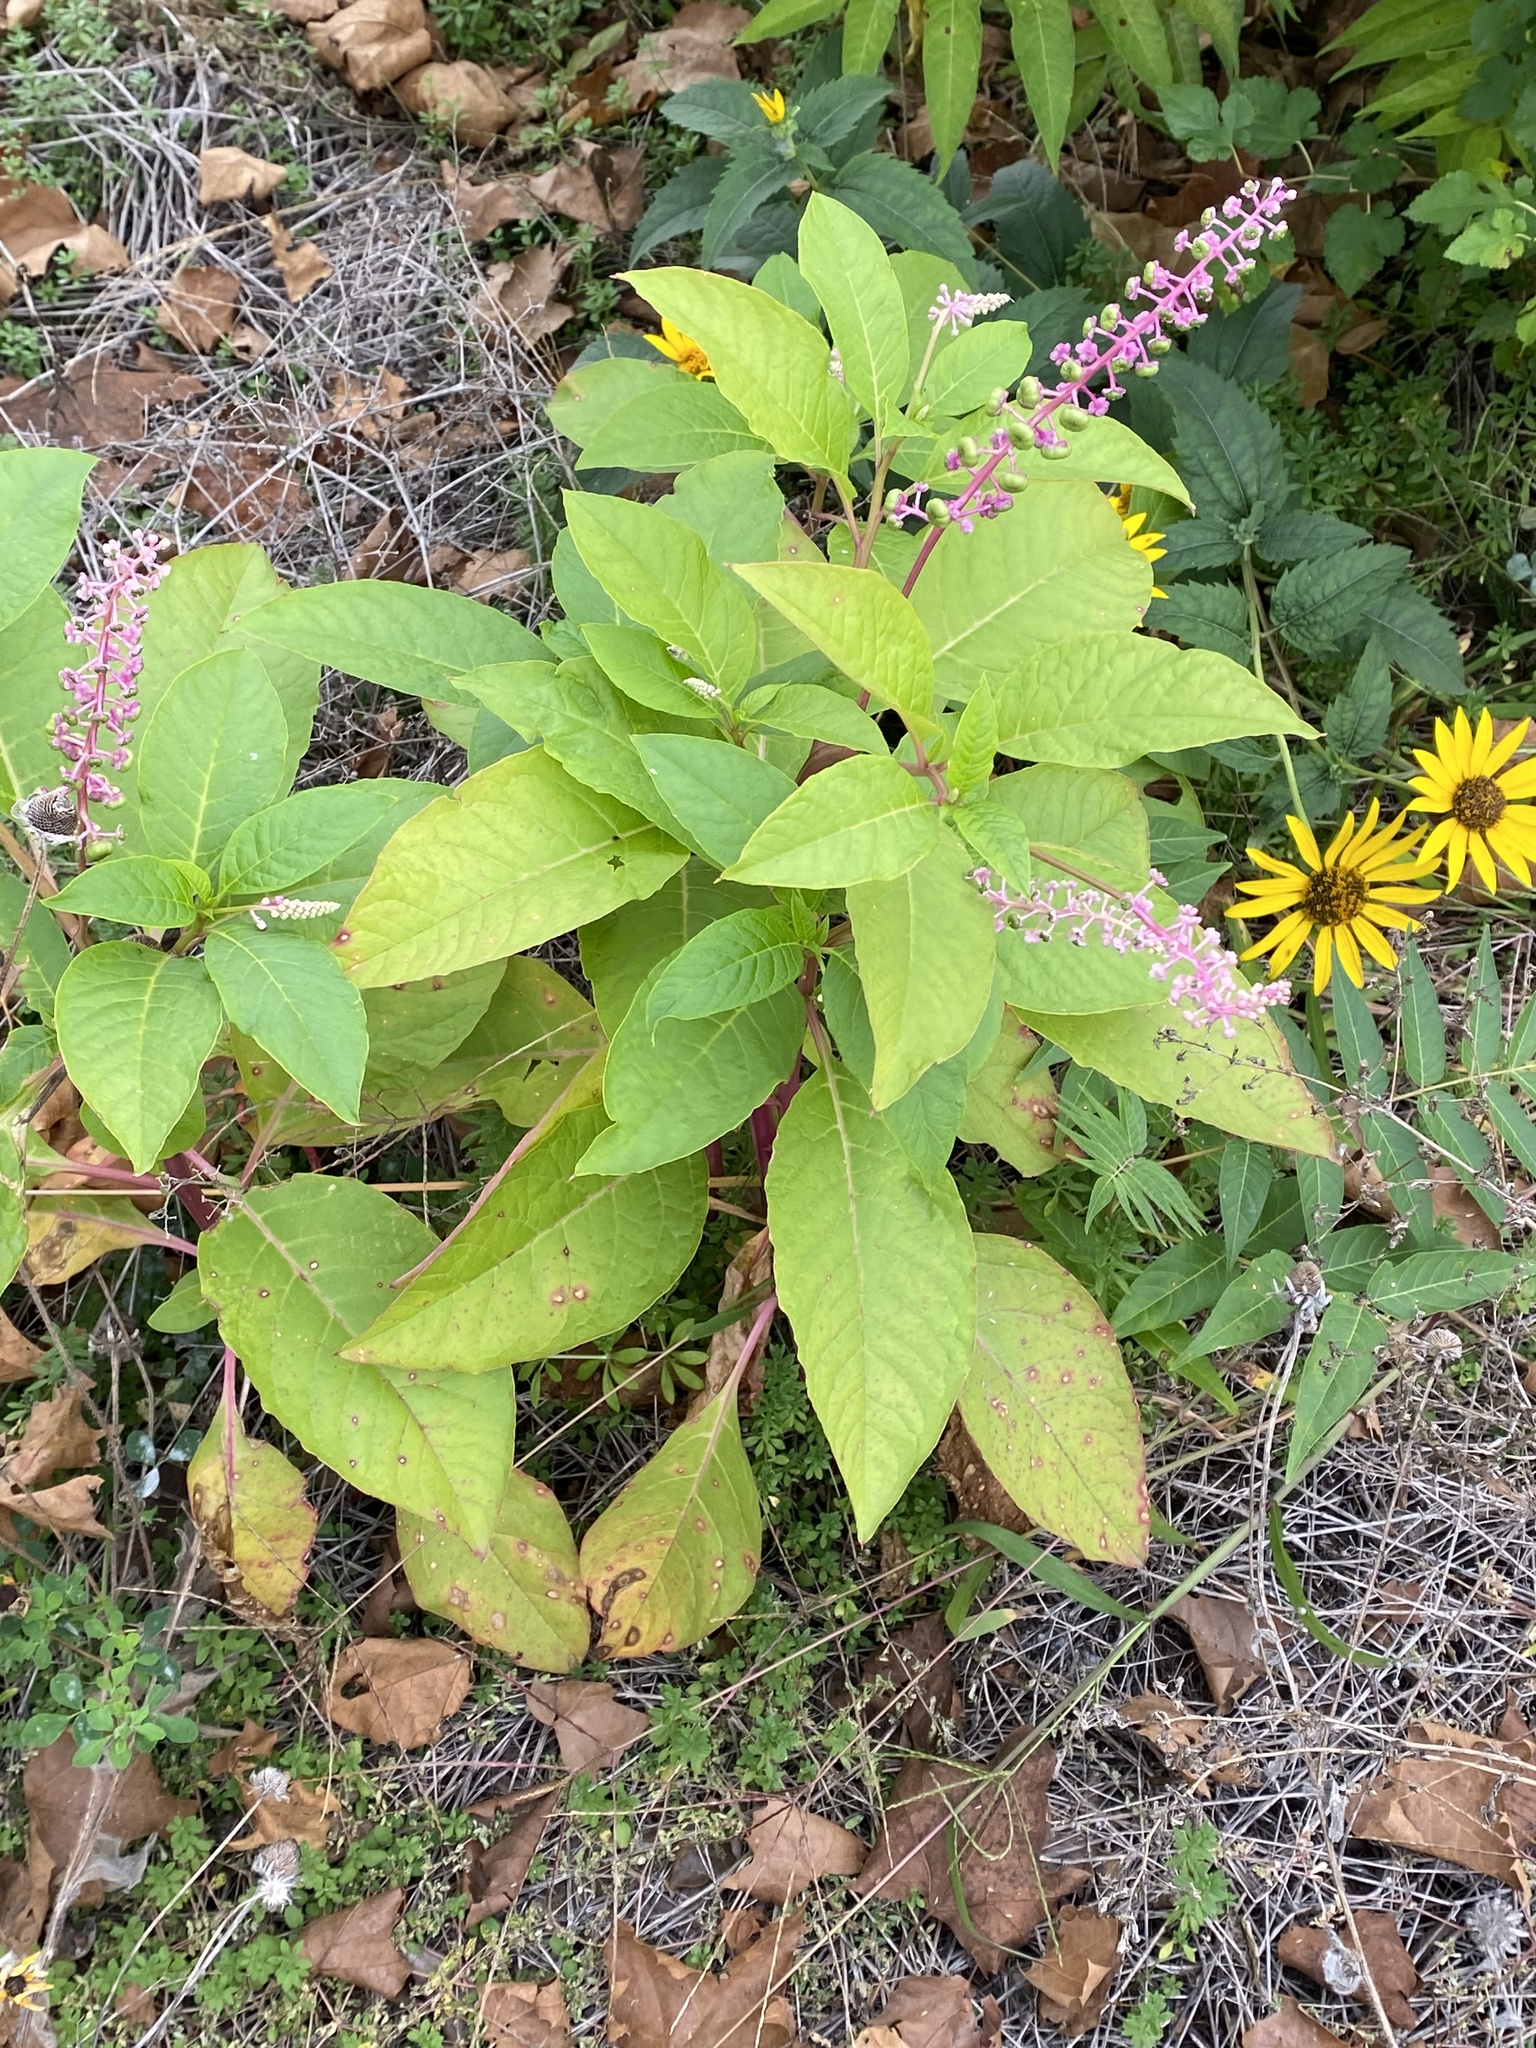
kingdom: Plantae
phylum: Tracheophyta
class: Magnoliopsida
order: Caryophyllales
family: Phytolaccaceae
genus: Phytolacca
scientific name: Phytolacca americana
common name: American pokeweed
